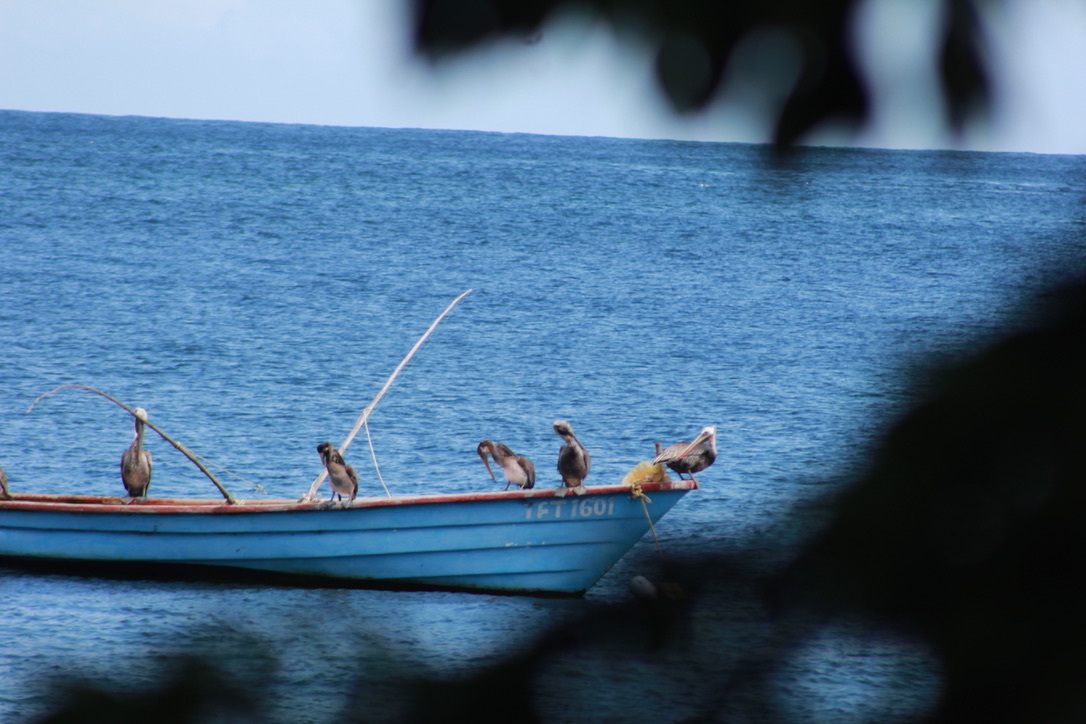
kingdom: Animalia
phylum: Chordata
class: Aves
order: Pelecaniformes
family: Pelecanidae
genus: Pelecanus
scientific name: Pelecanus occidentalis
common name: Brown pelican
